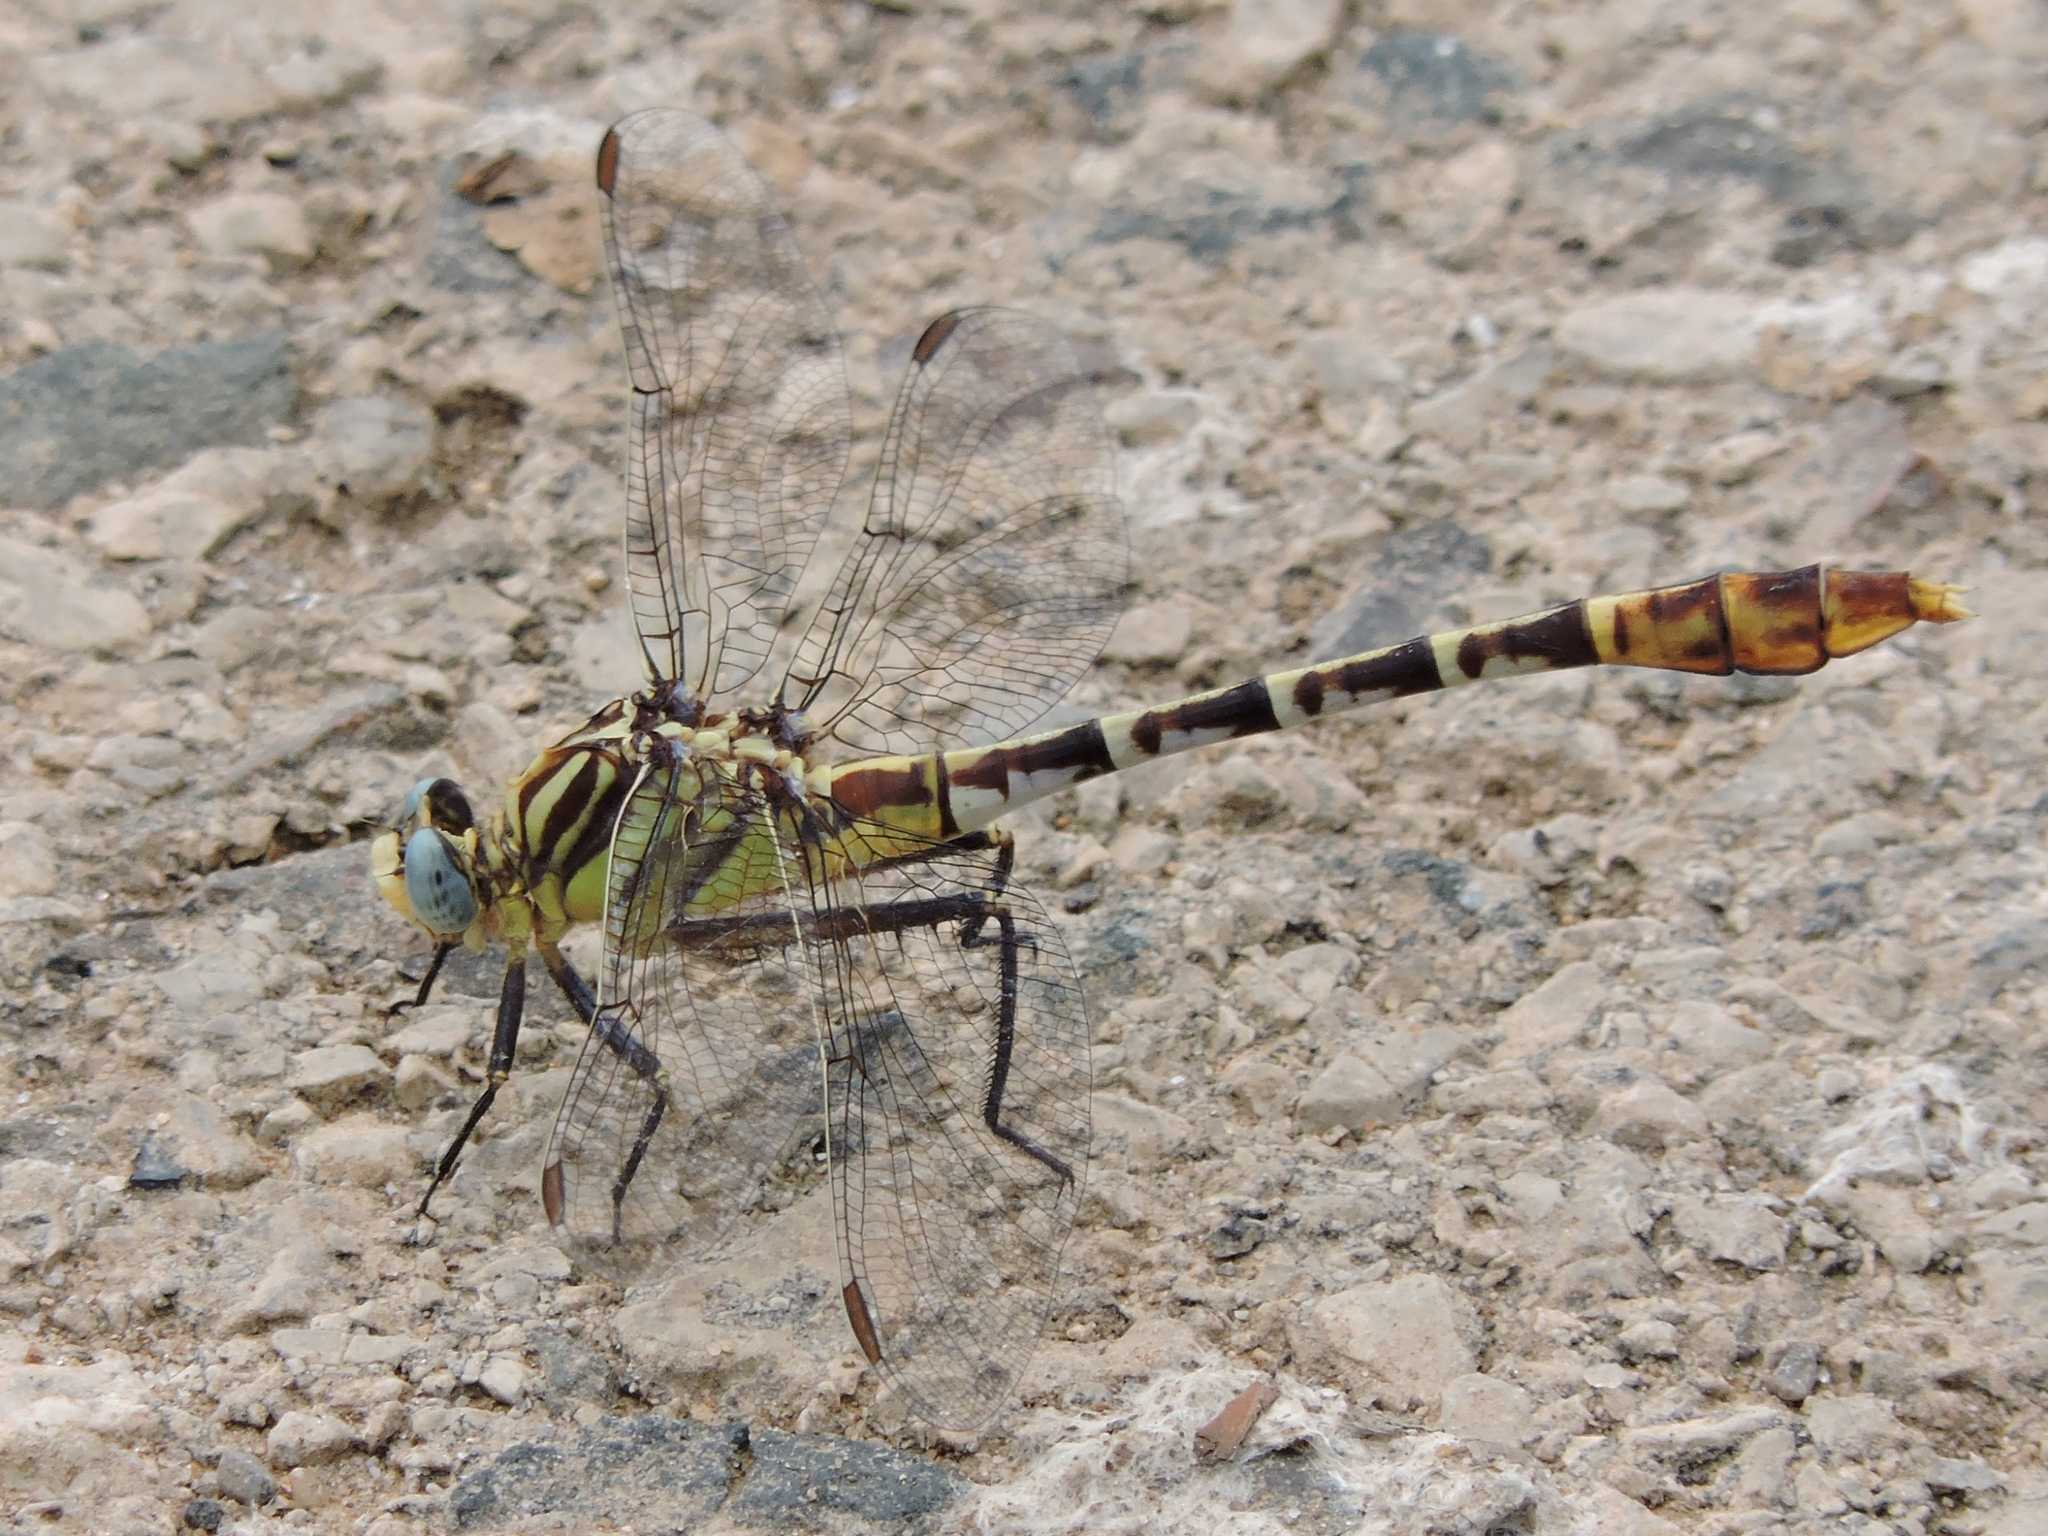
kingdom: Animalia
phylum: Arthropoda
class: Insecta
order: Odonata
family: Gomphidae
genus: Dromogomphus
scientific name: Dromogomphus spoliatus
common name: Flag-tailed spinyleg
